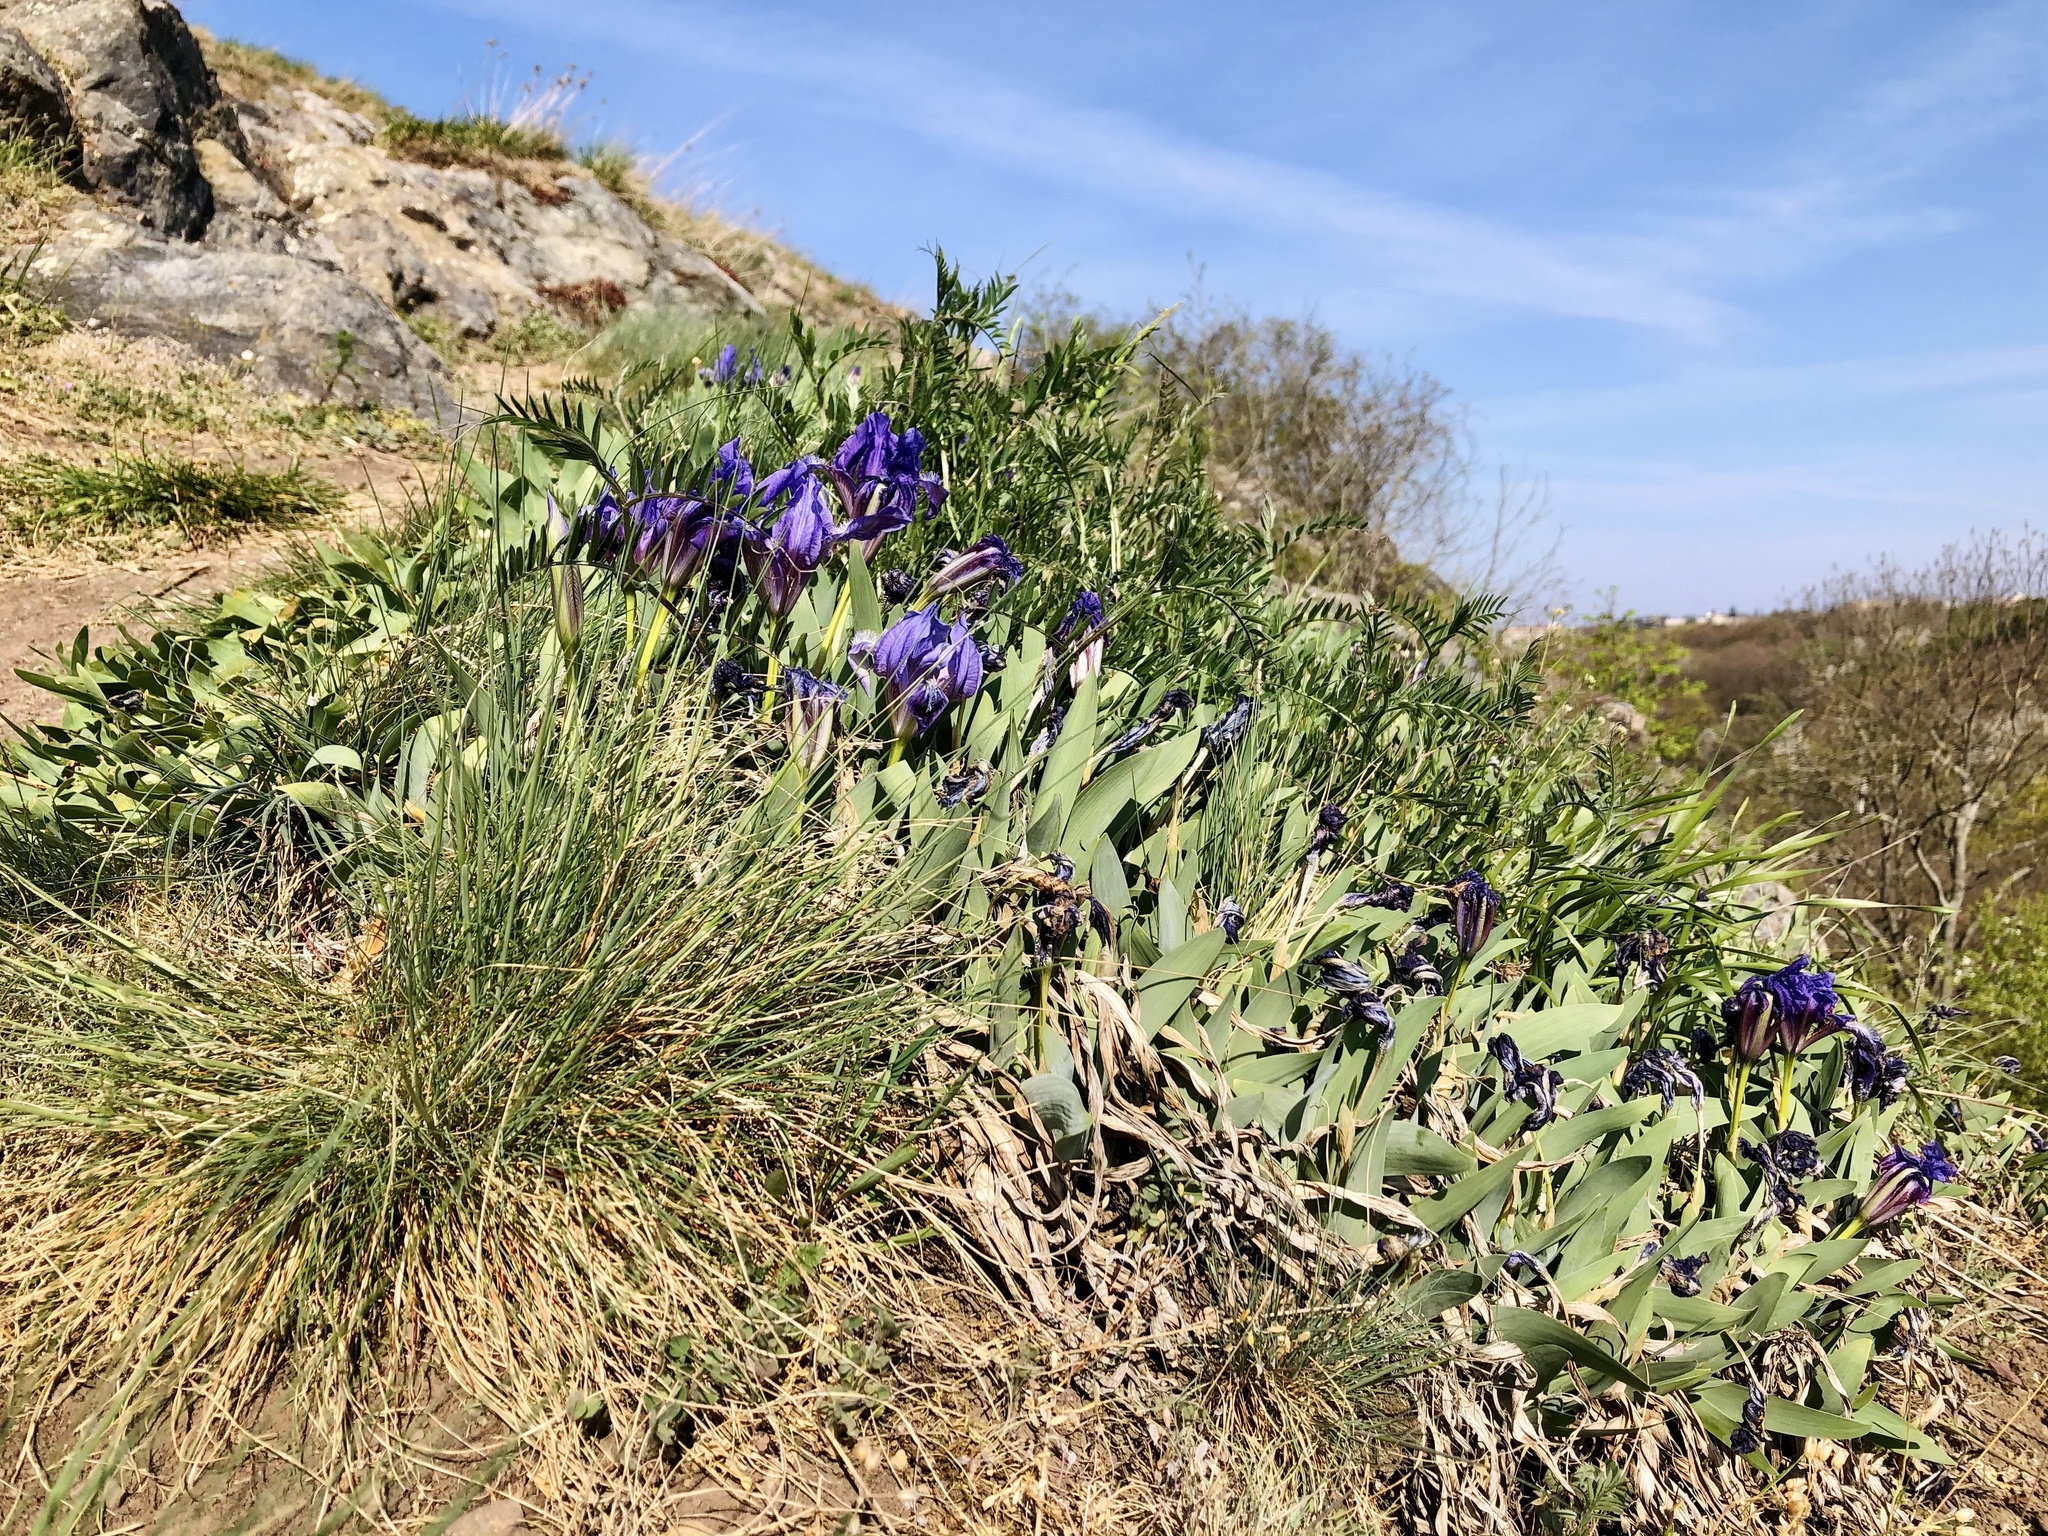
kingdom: Plantae
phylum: Tracheophyta
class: Liliopsida
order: Asparagales
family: Iridaceae
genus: Iris
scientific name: Iris pumila
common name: Dwarf iris
